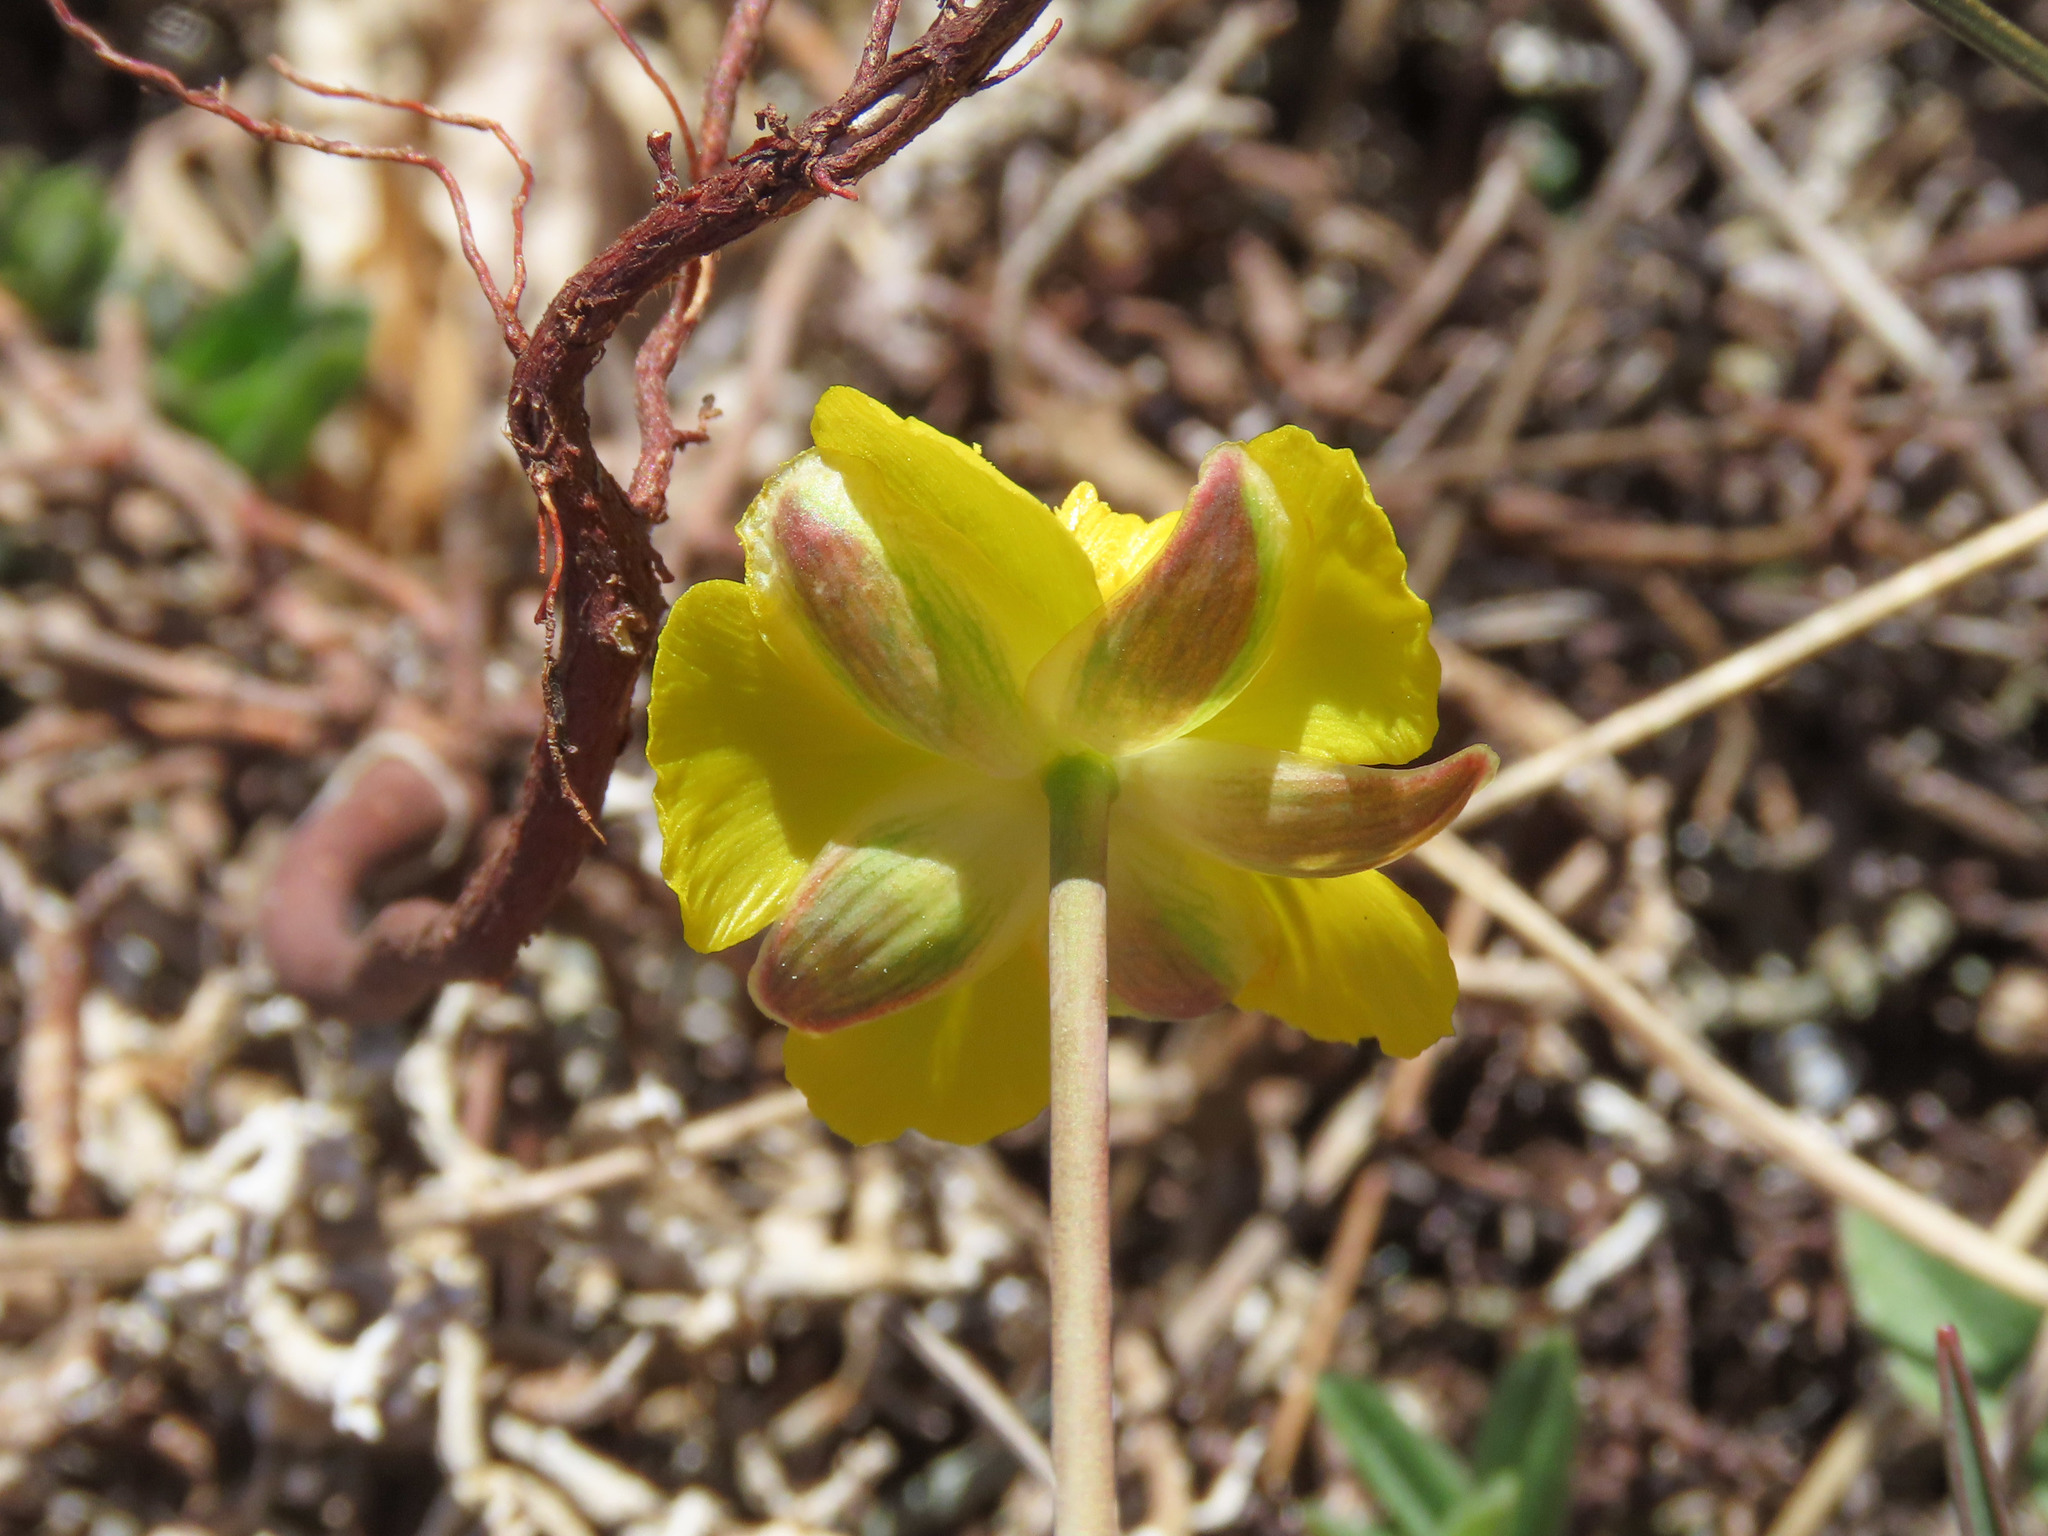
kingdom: Plantae
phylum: Tracheophyta
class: Magnoliopsida
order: Ranunculales
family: Ranunculaceae
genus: Ranunculus
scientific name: Ranunculus gramineus
